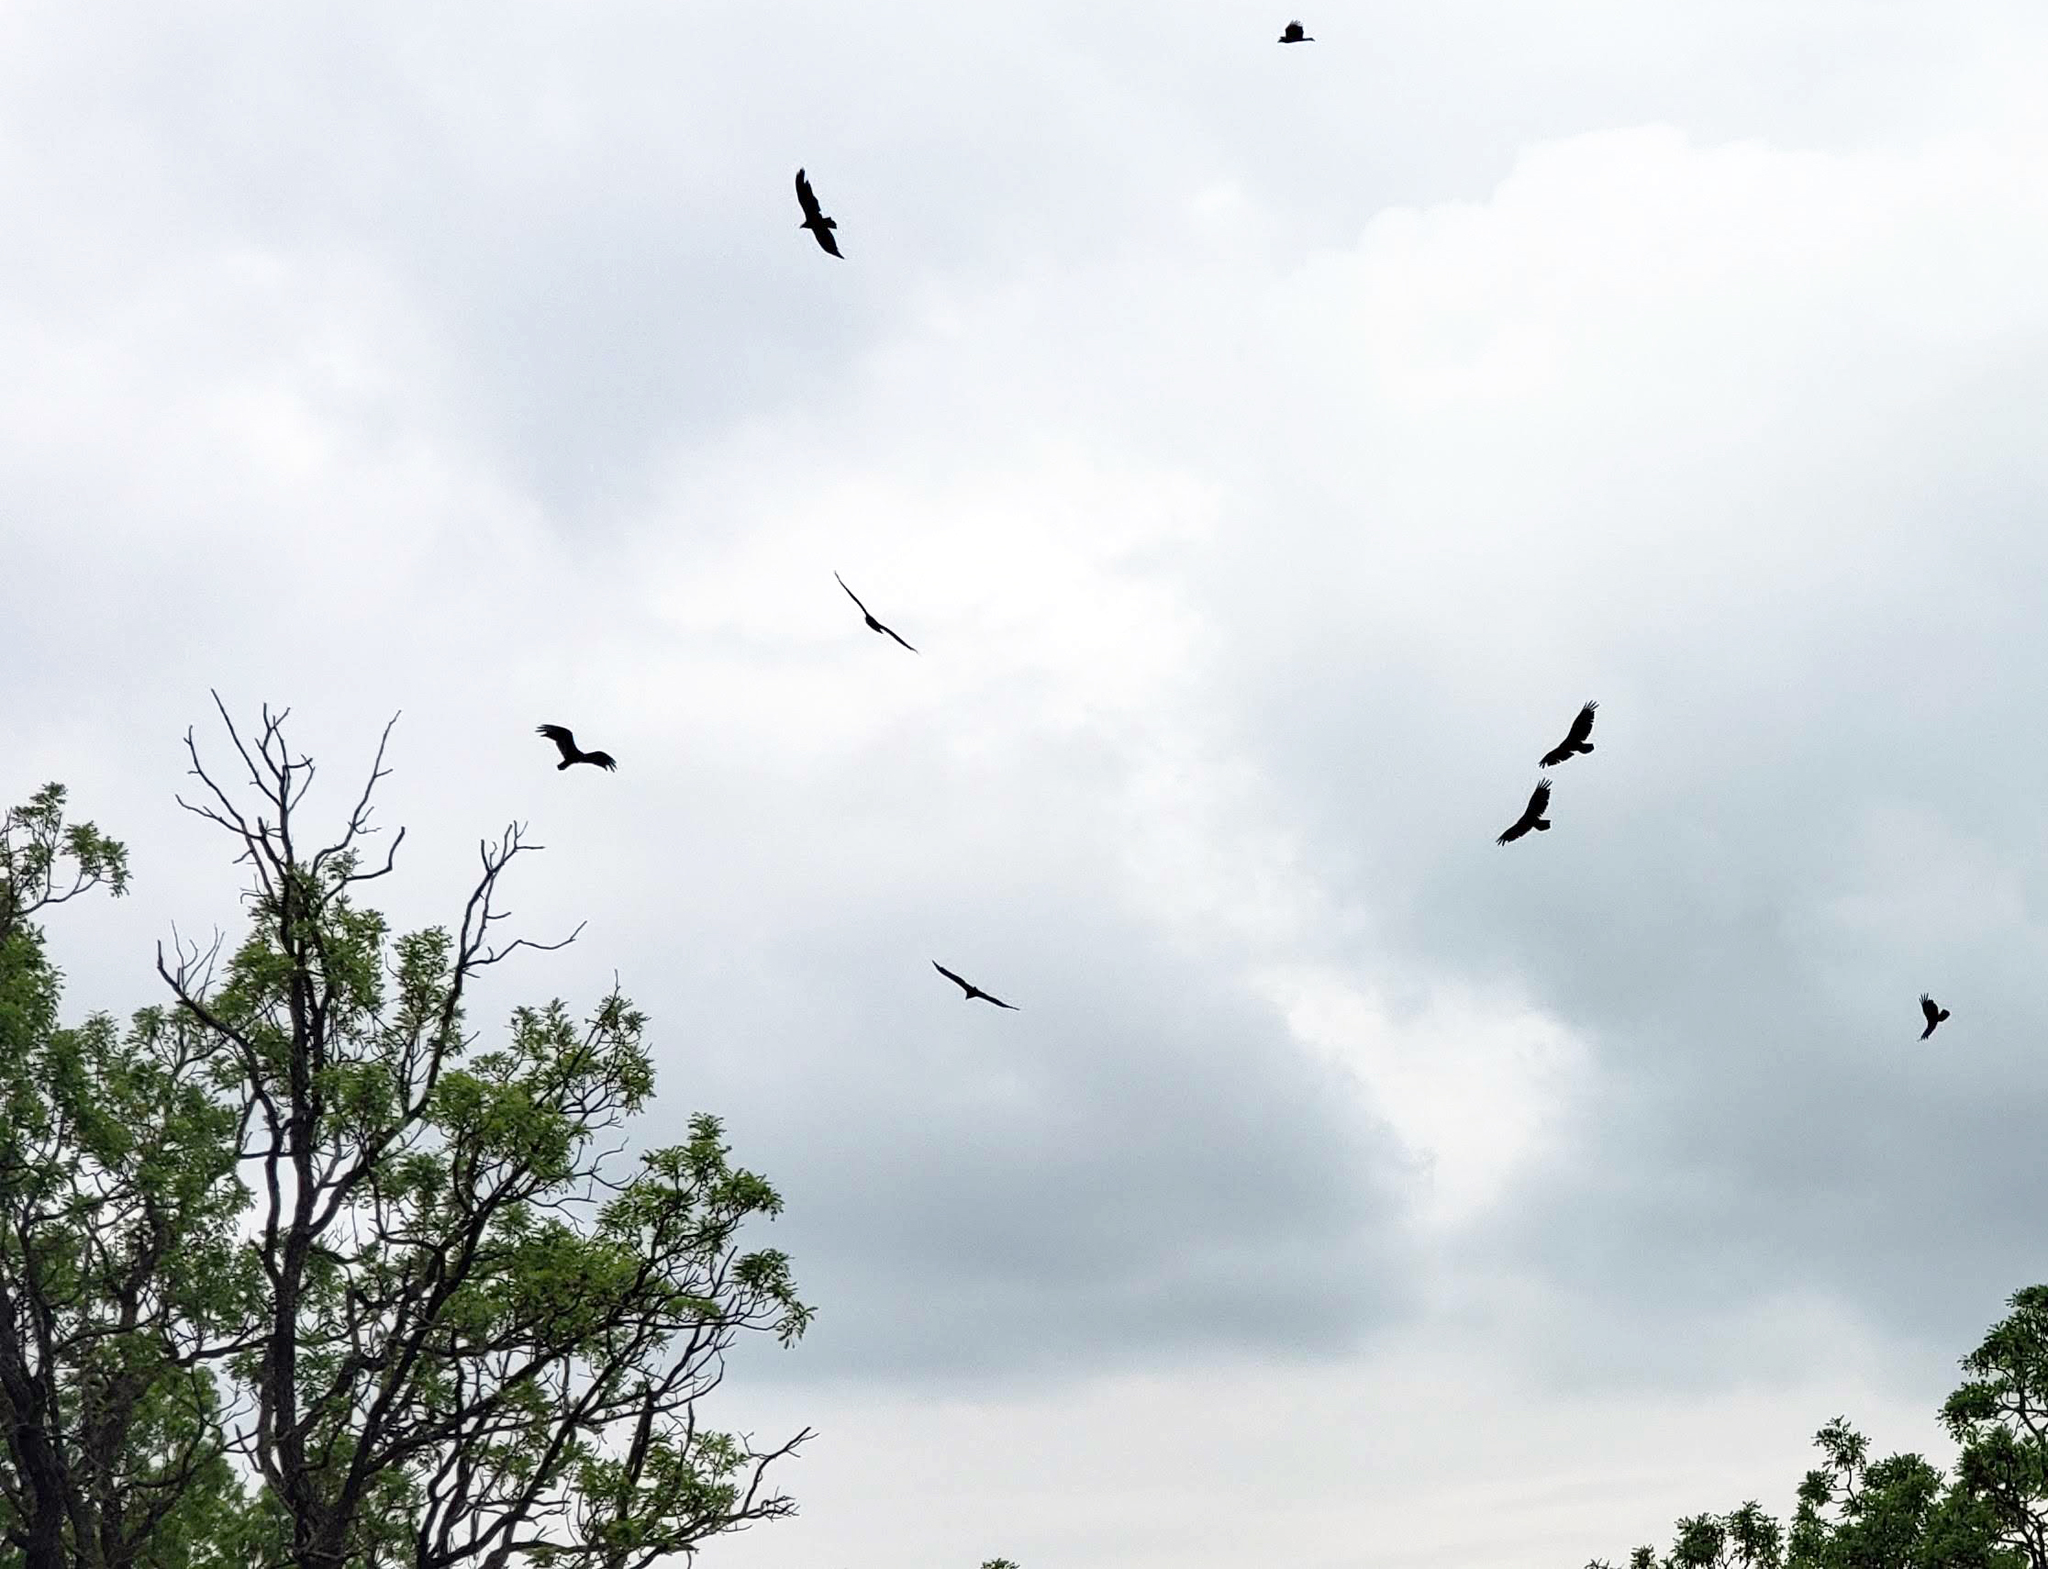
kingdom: Animalia
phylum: Chordata
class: Aves
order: Accipitriformes
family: Cathartidae
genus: Cathartes
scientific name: Cathartes aura
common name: Turkey vulture
